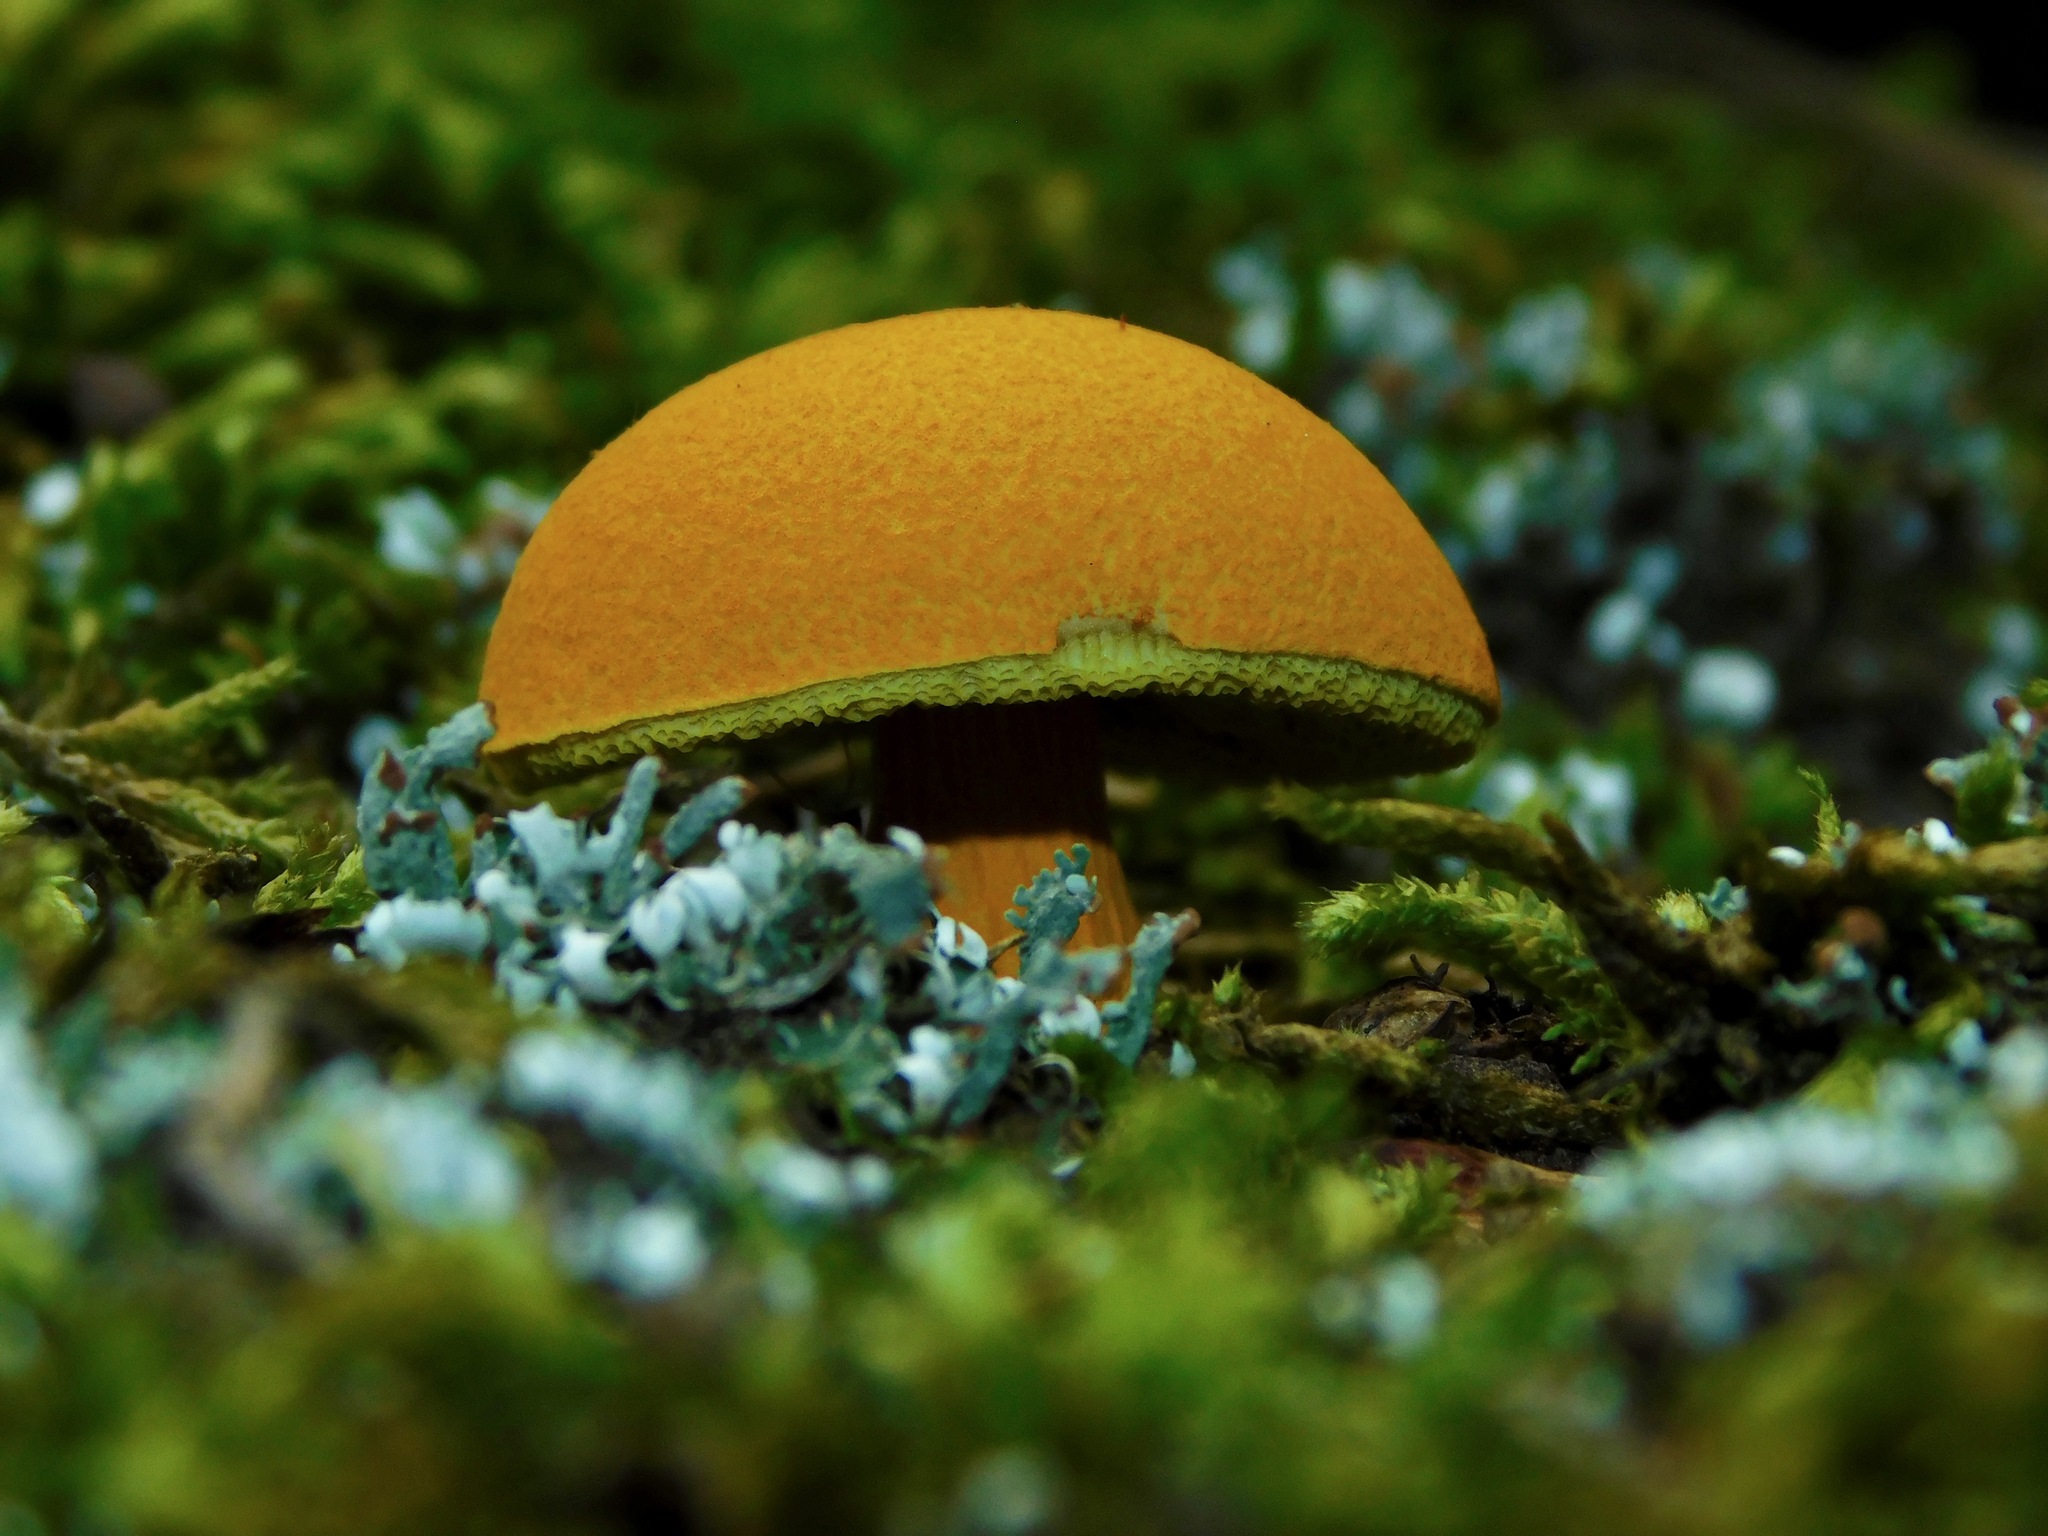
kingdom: Fungi
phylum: Basidiomycota
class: Agaricomycetes
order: Boletales
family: Boletaceae
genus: Aureoboletus
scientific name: Aureoboletus auriflammeus
